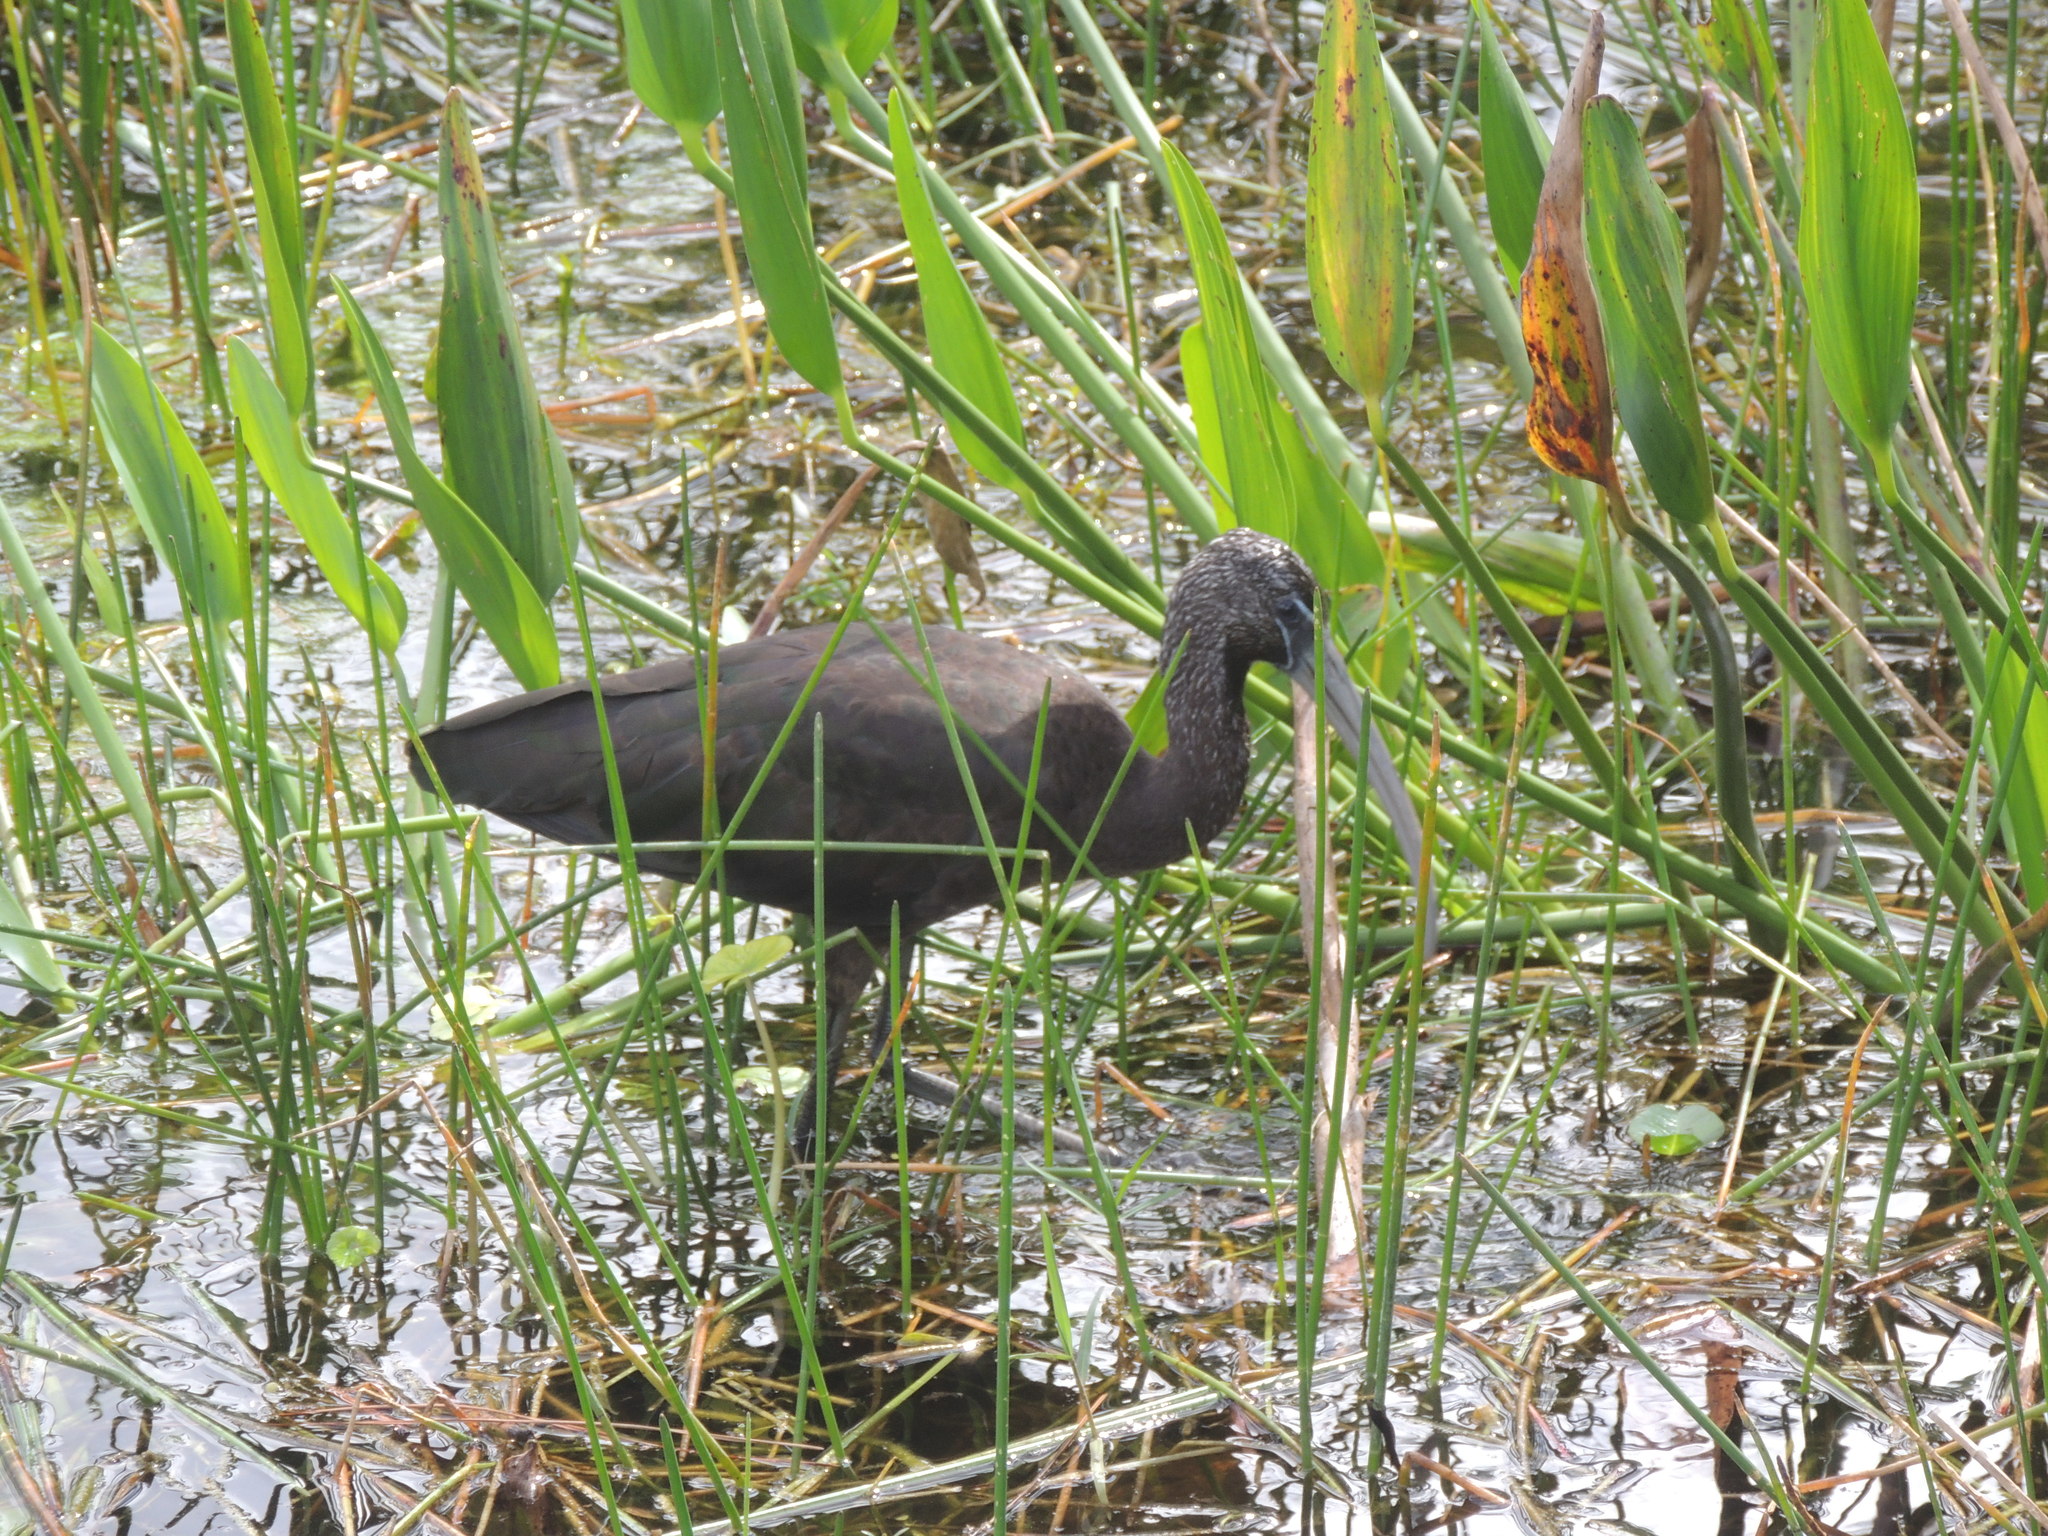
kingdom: Animalia
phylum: Chordata
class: Aves
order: Pelecaniformes
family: Threskiornithidae
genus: Plegadis
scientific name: Plegadis falcinellus
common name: Glossy ibis
